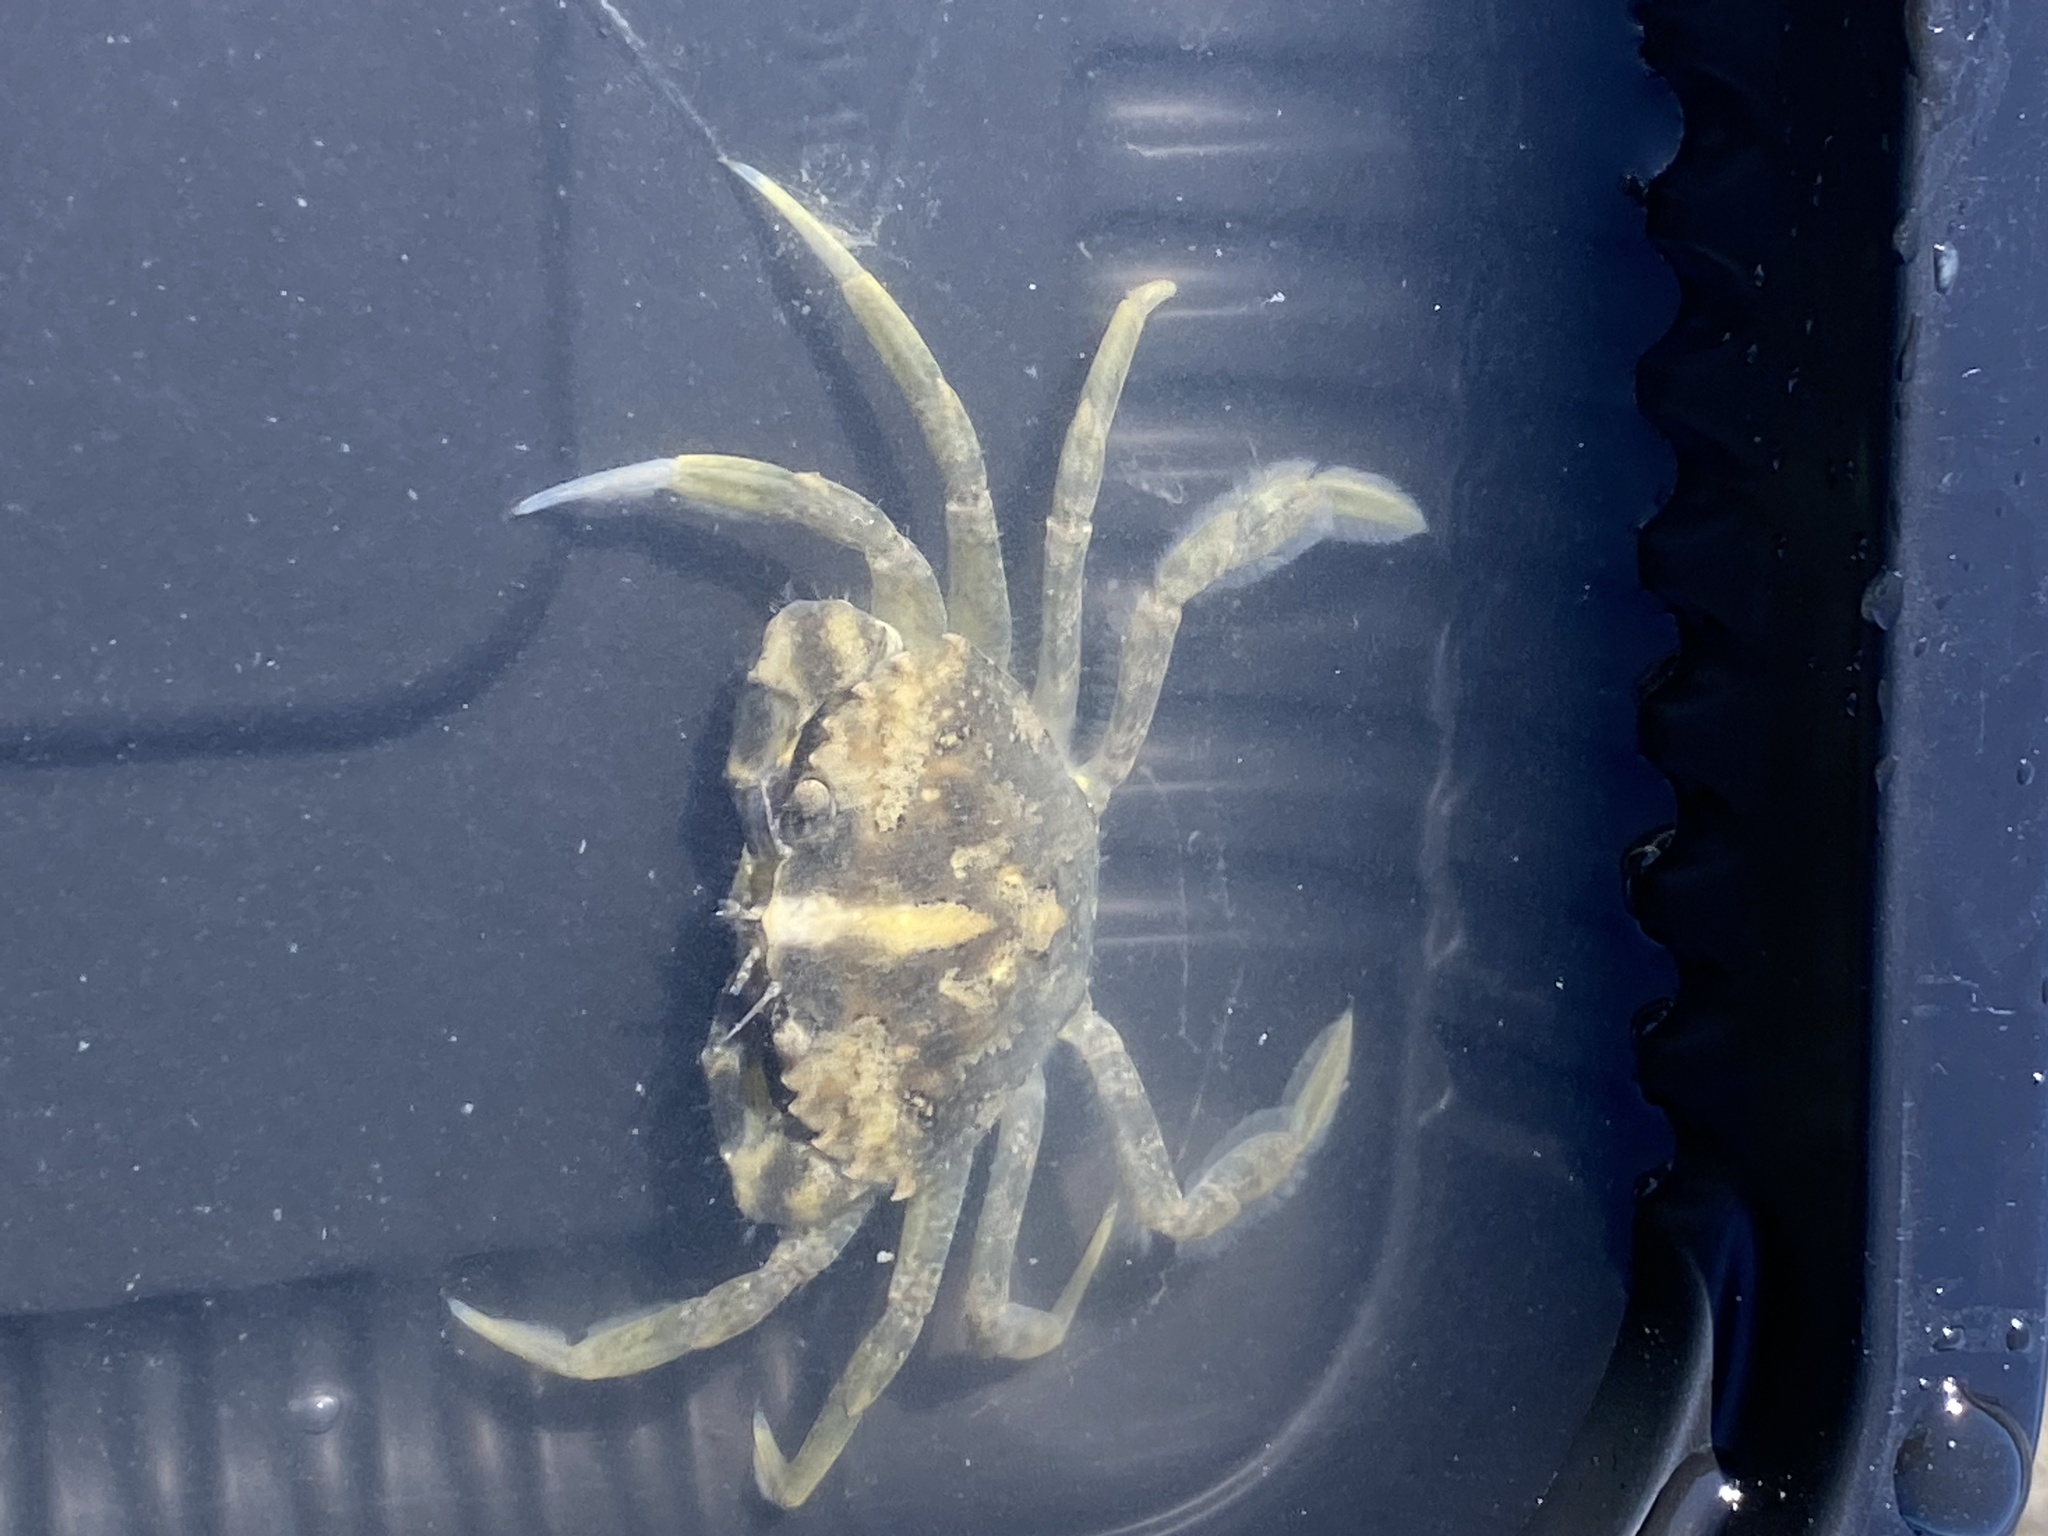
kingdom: Animalia
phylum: Arthropoda
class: Malacostraca
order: Decapoda
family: Carcinidae
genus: Carcinus
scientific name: Carcinus maenas
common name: European green crab
